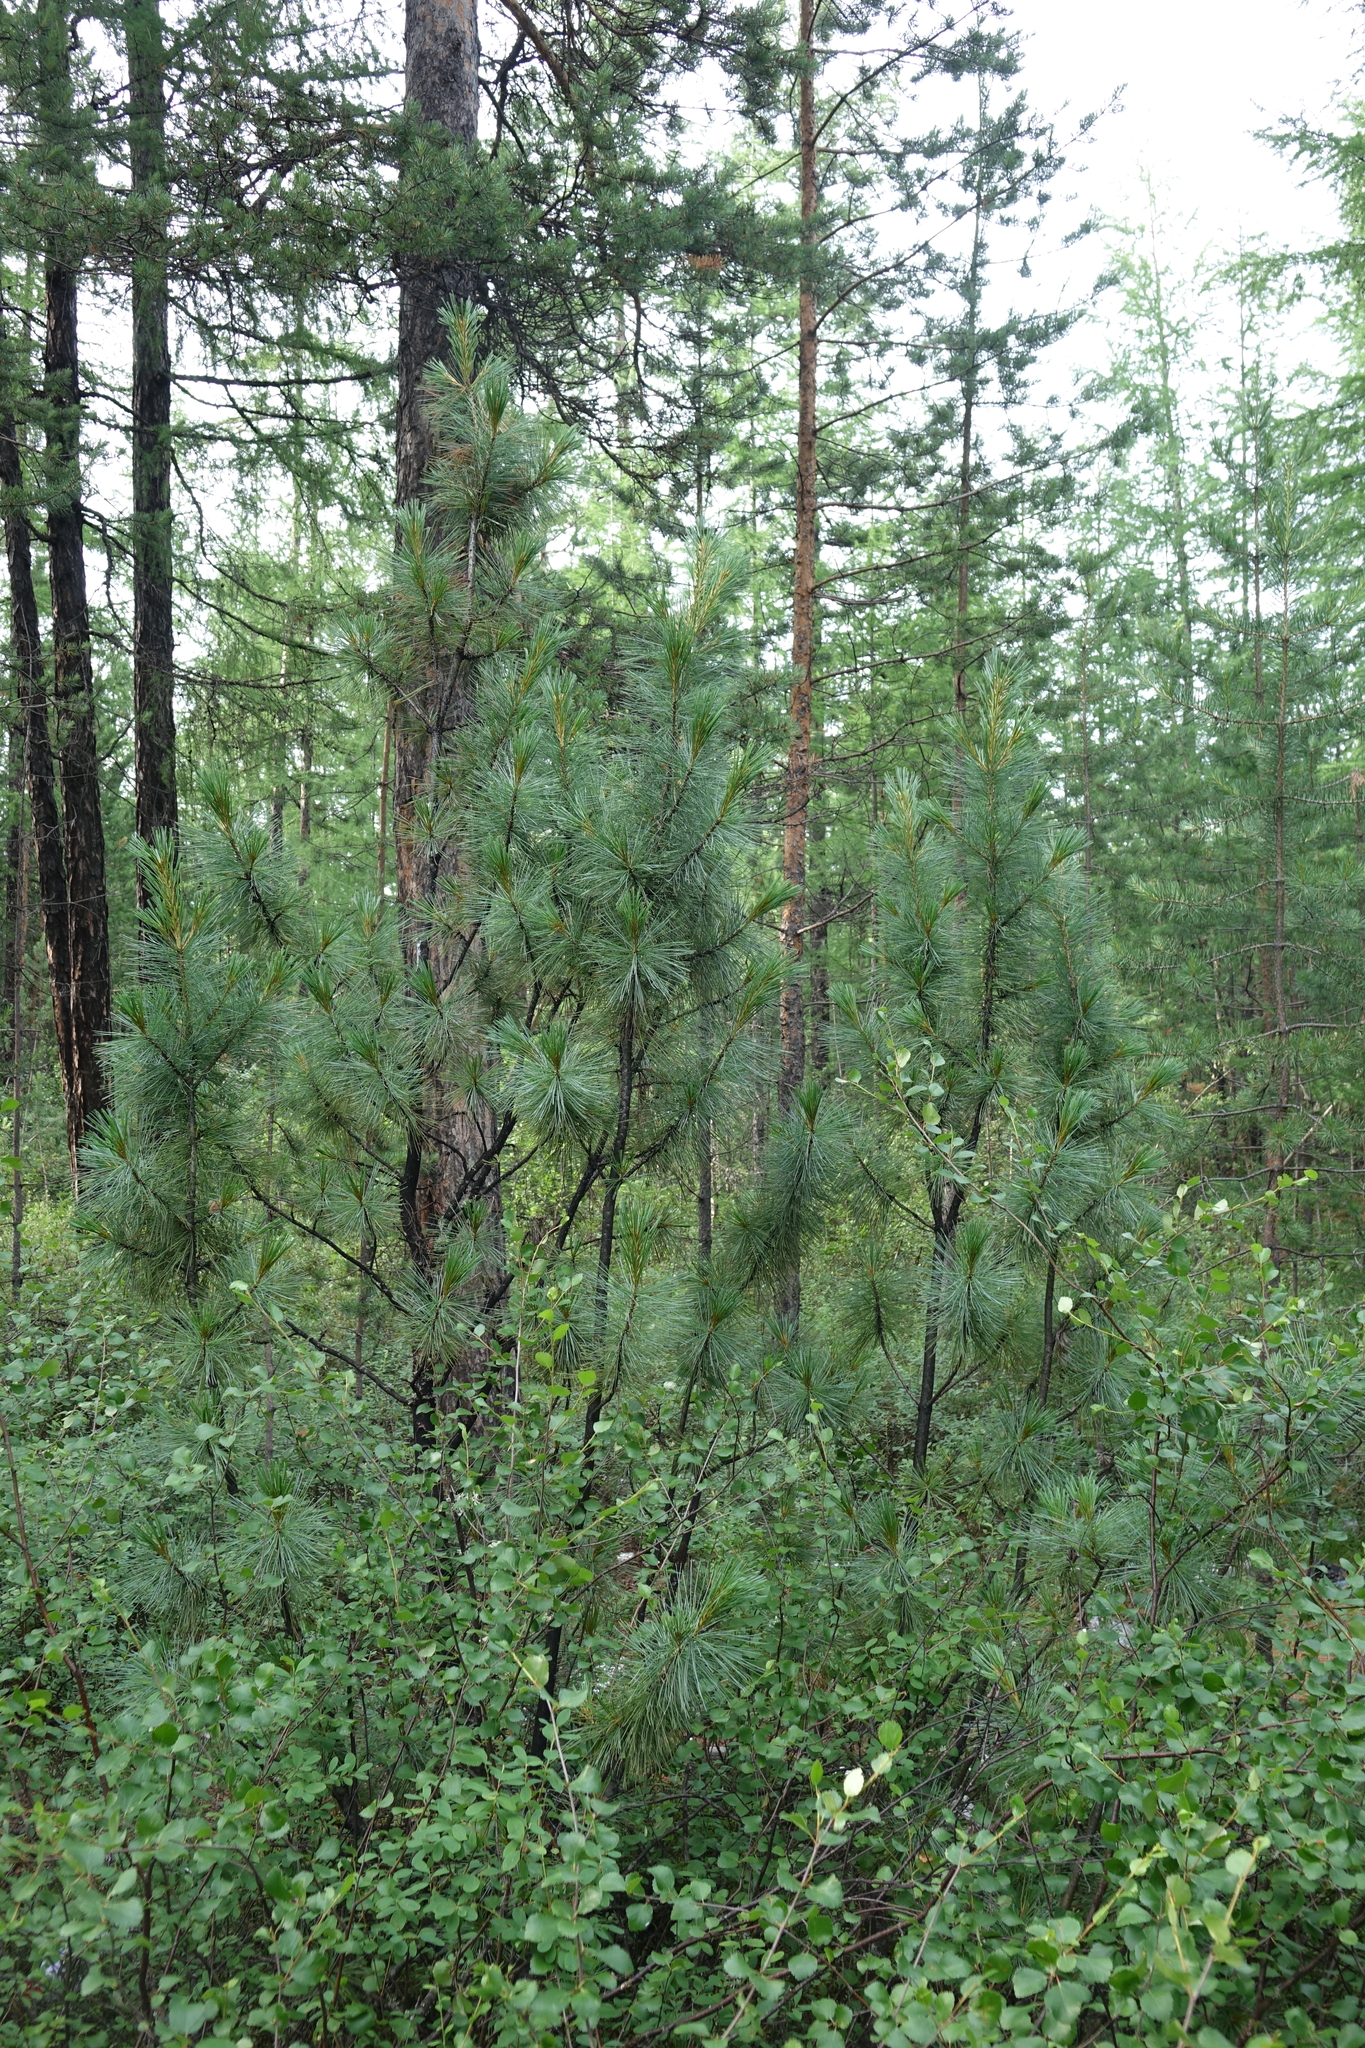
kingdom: Plantae
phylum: Tracheophyta
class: Pinopsida
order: Pinales
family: Pinaceae
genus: Pinus
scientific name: Pinus pumila
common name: Dwarf siberian pine
